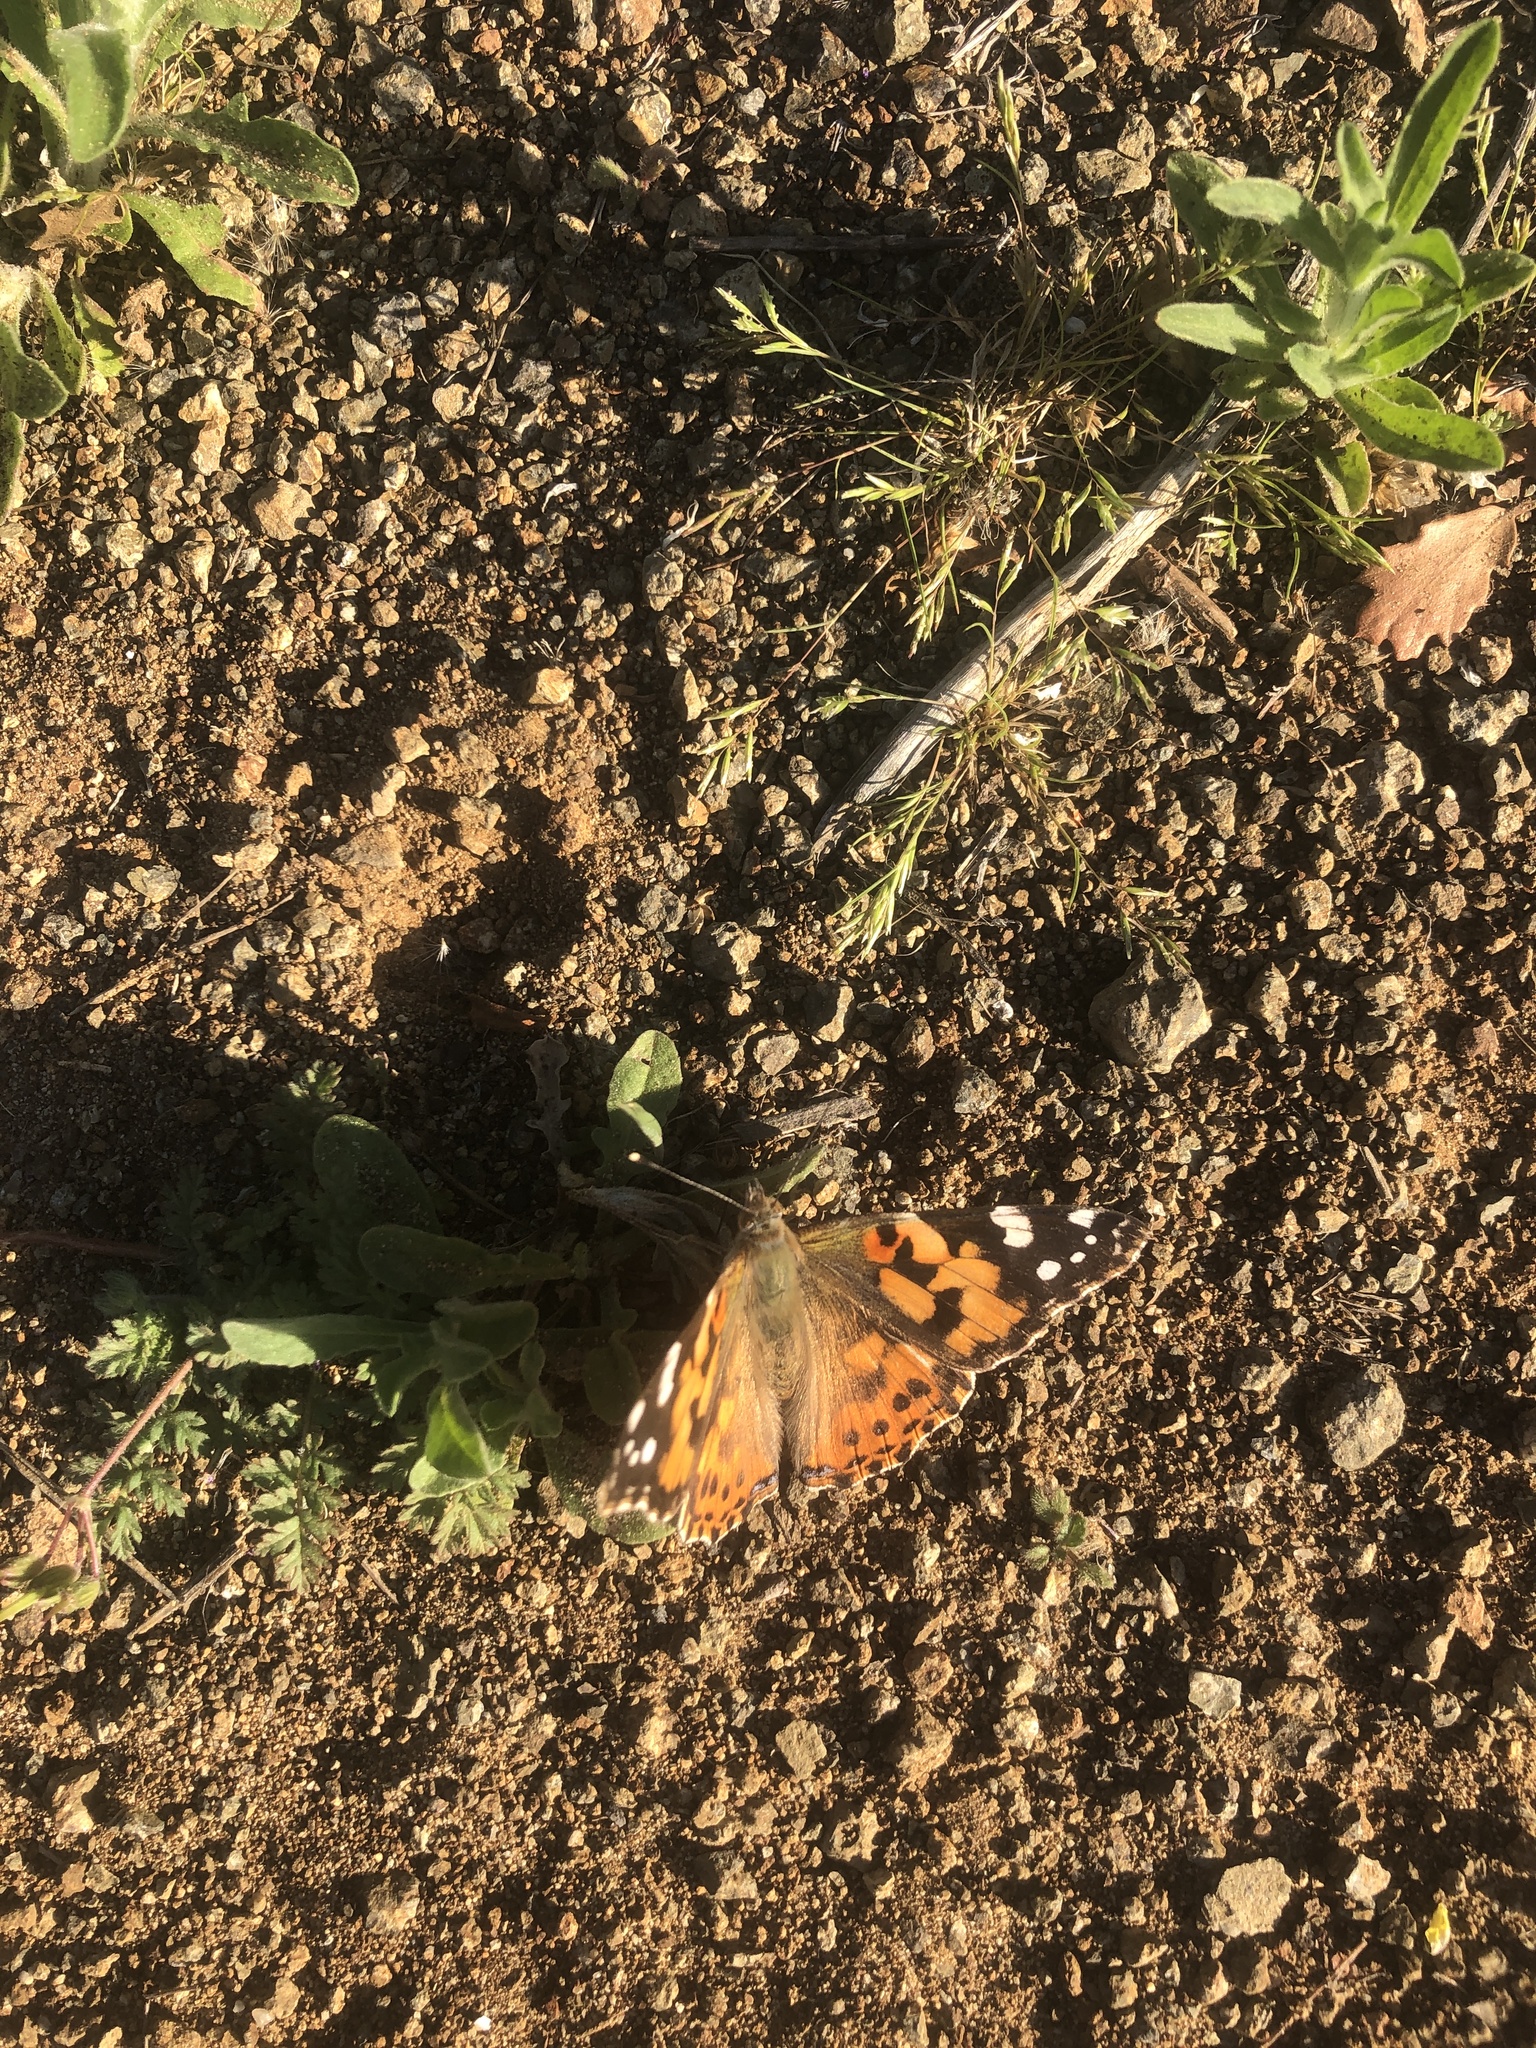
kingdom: Animalia
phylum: Arthropoda
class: Insecta
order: Lepidoptera
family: Nymphalidae
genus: Vanessa
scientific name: Vanessa cardui
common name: Painted lady
